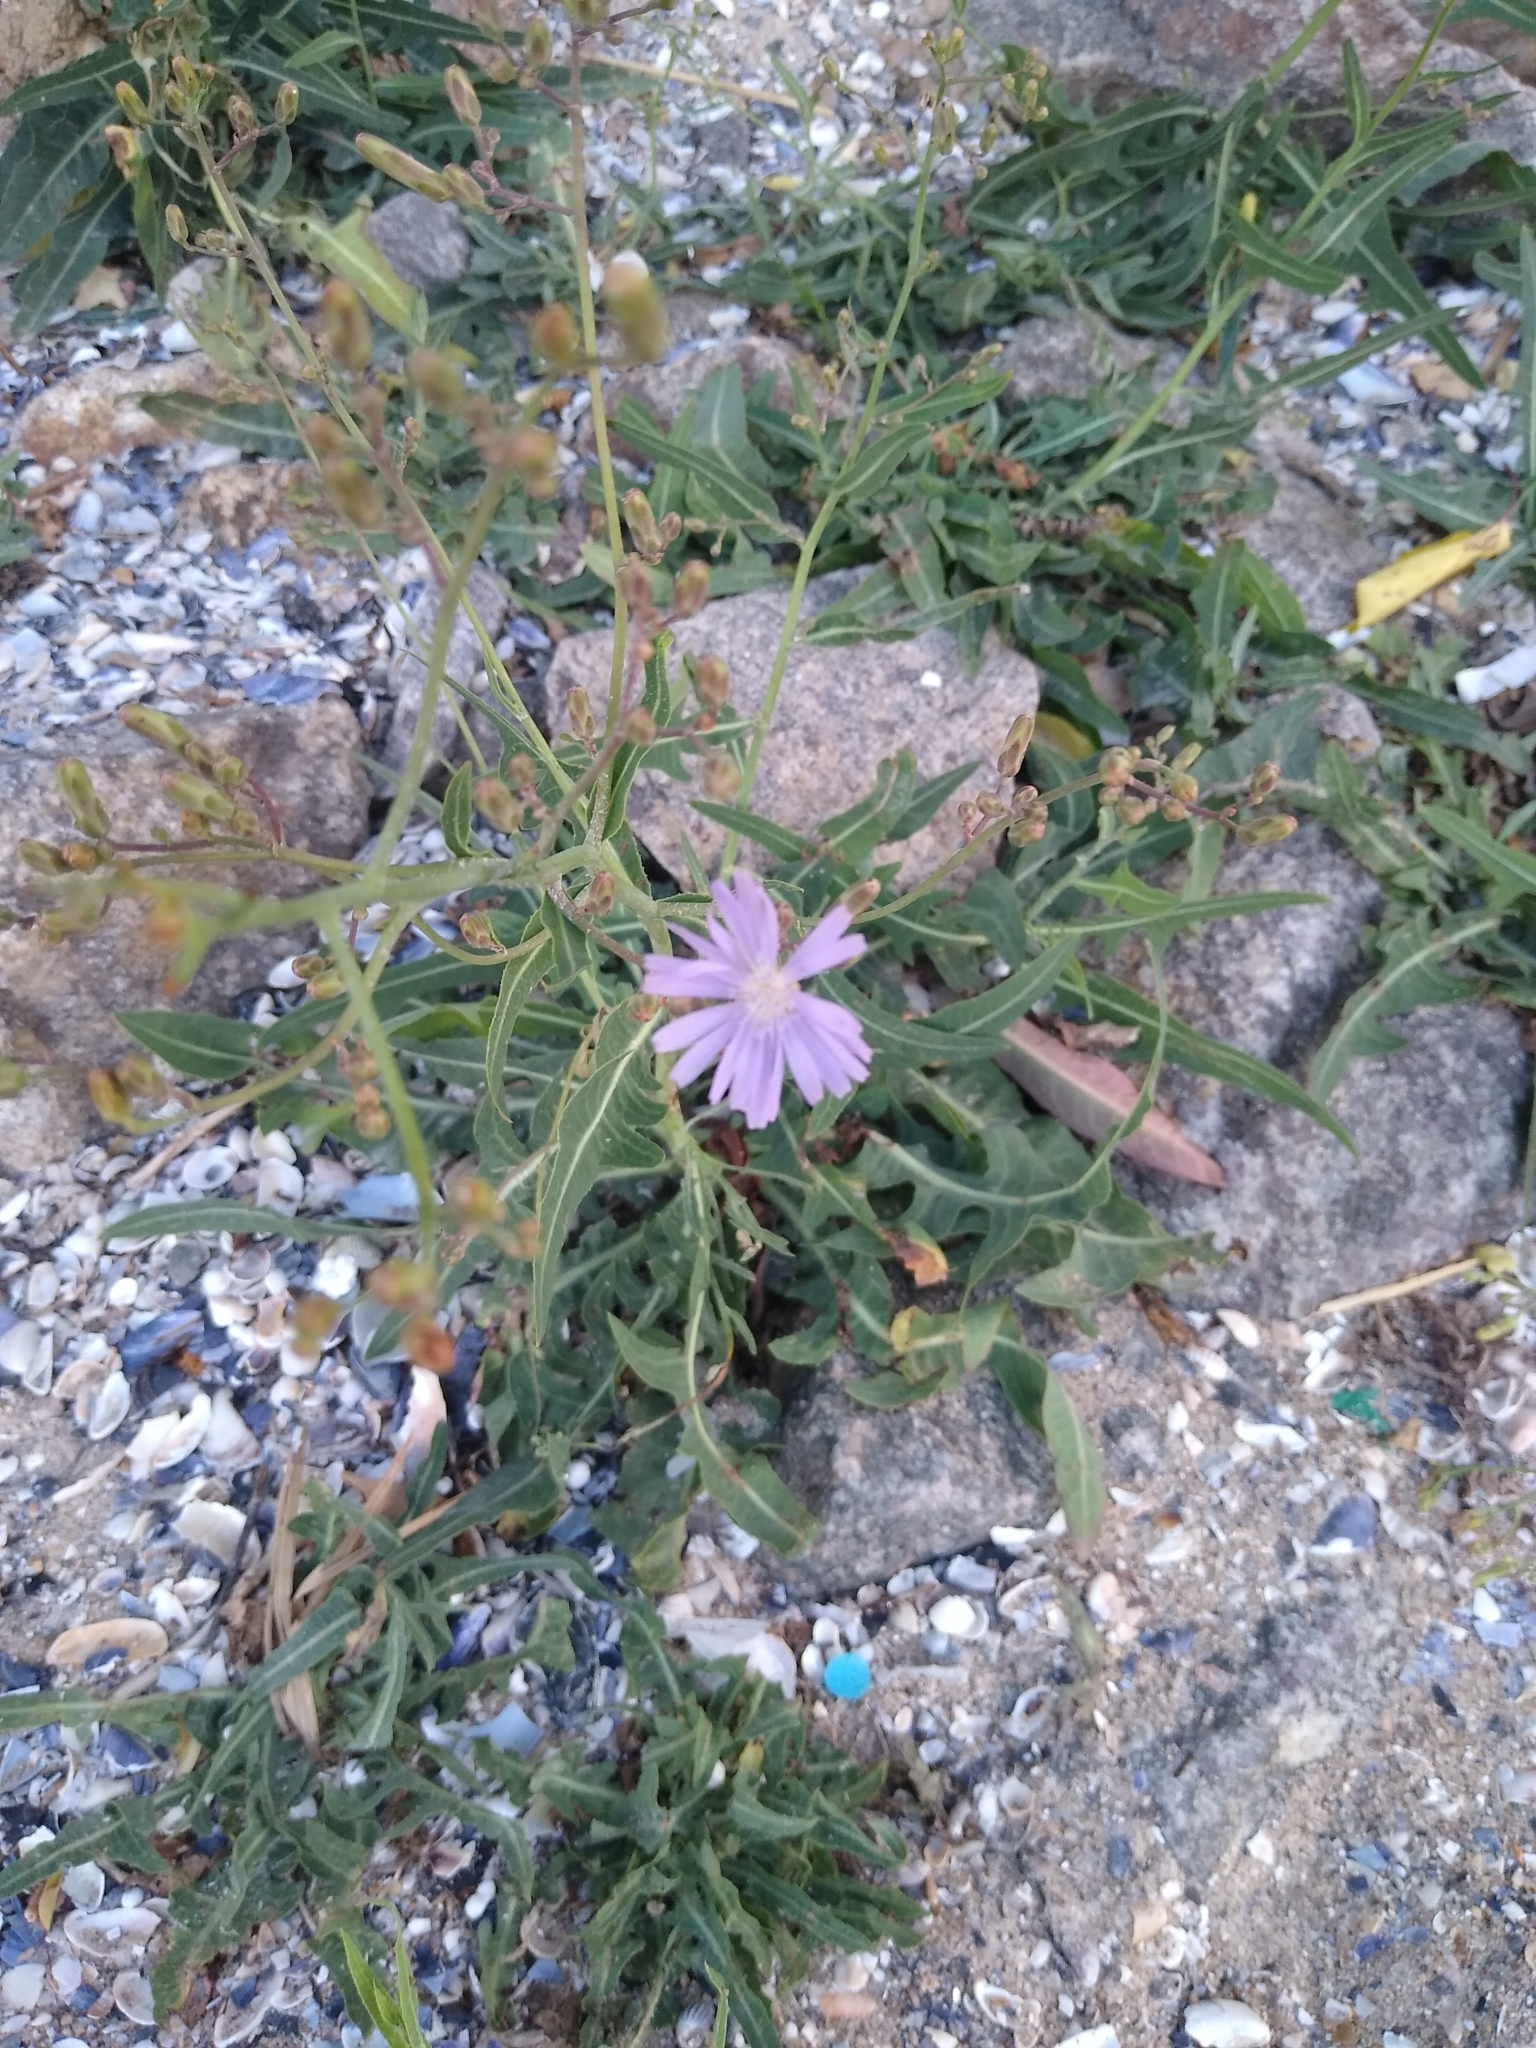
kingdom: Plantae
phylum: Tracheophyta
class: Magnoliopsida
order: Asterales
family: Asteraceae
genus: Lactuca
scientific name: Lactuca tatarica
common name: Blue lettuce
